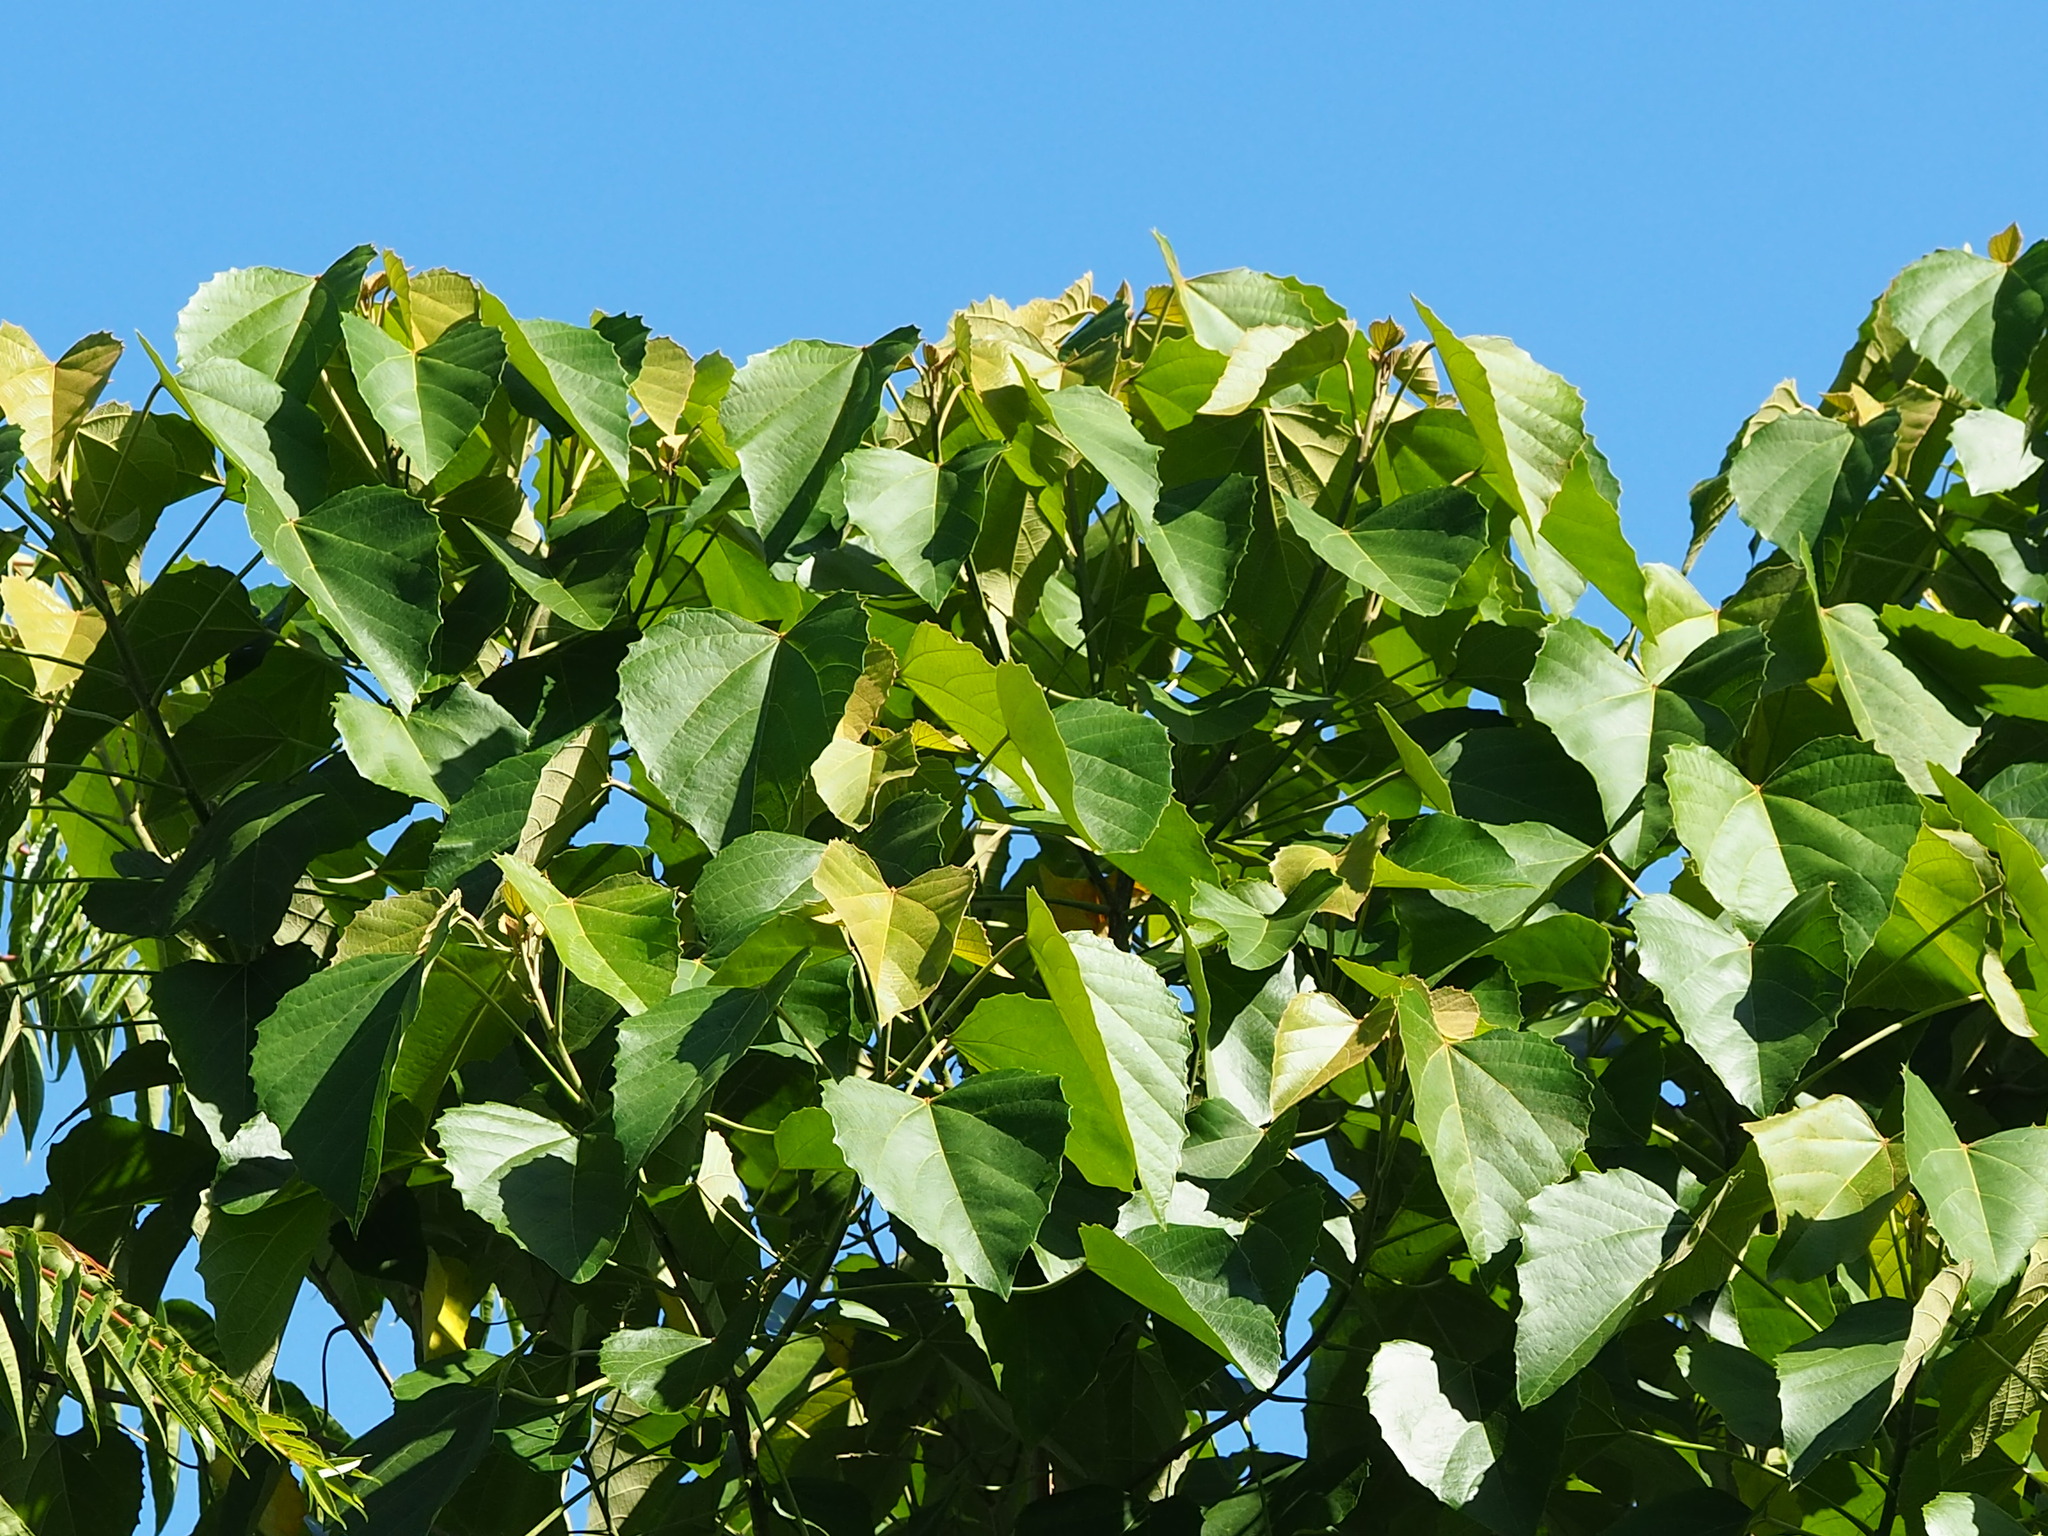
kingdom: Plantae
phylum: Tracheophyta
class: Magnoliopsida
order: Malpighiales
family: Euphorbiaceae
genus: Melanolepis
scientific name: Melanolepis multiglandulosa
